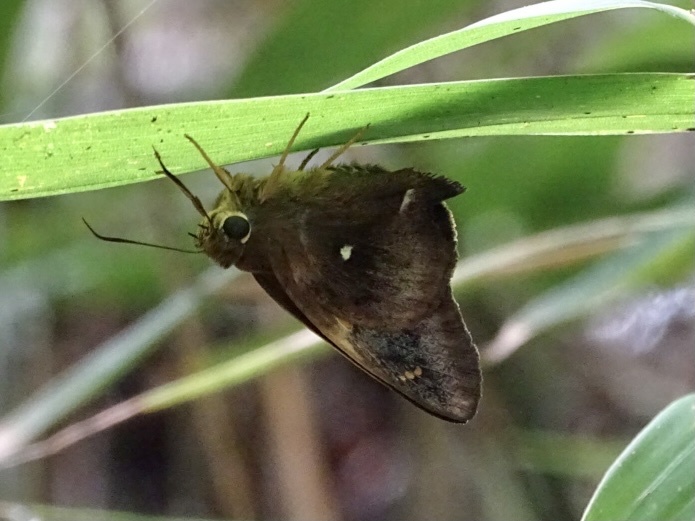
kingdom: Animalia
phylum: Arthropoda
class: Insecta
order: Lepidoptera
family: Hesperiidae
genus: Hasora
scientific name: Hasora badra
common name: Common awl
